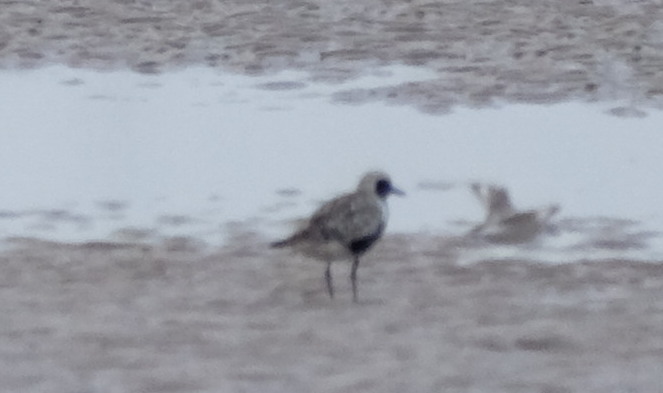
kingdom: Animalia
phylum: Chordata
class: Aves
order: Charadriiformes
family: Charadriidae
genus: Pluvialis
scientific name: Pluvialis squatarola
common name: Grey plover
